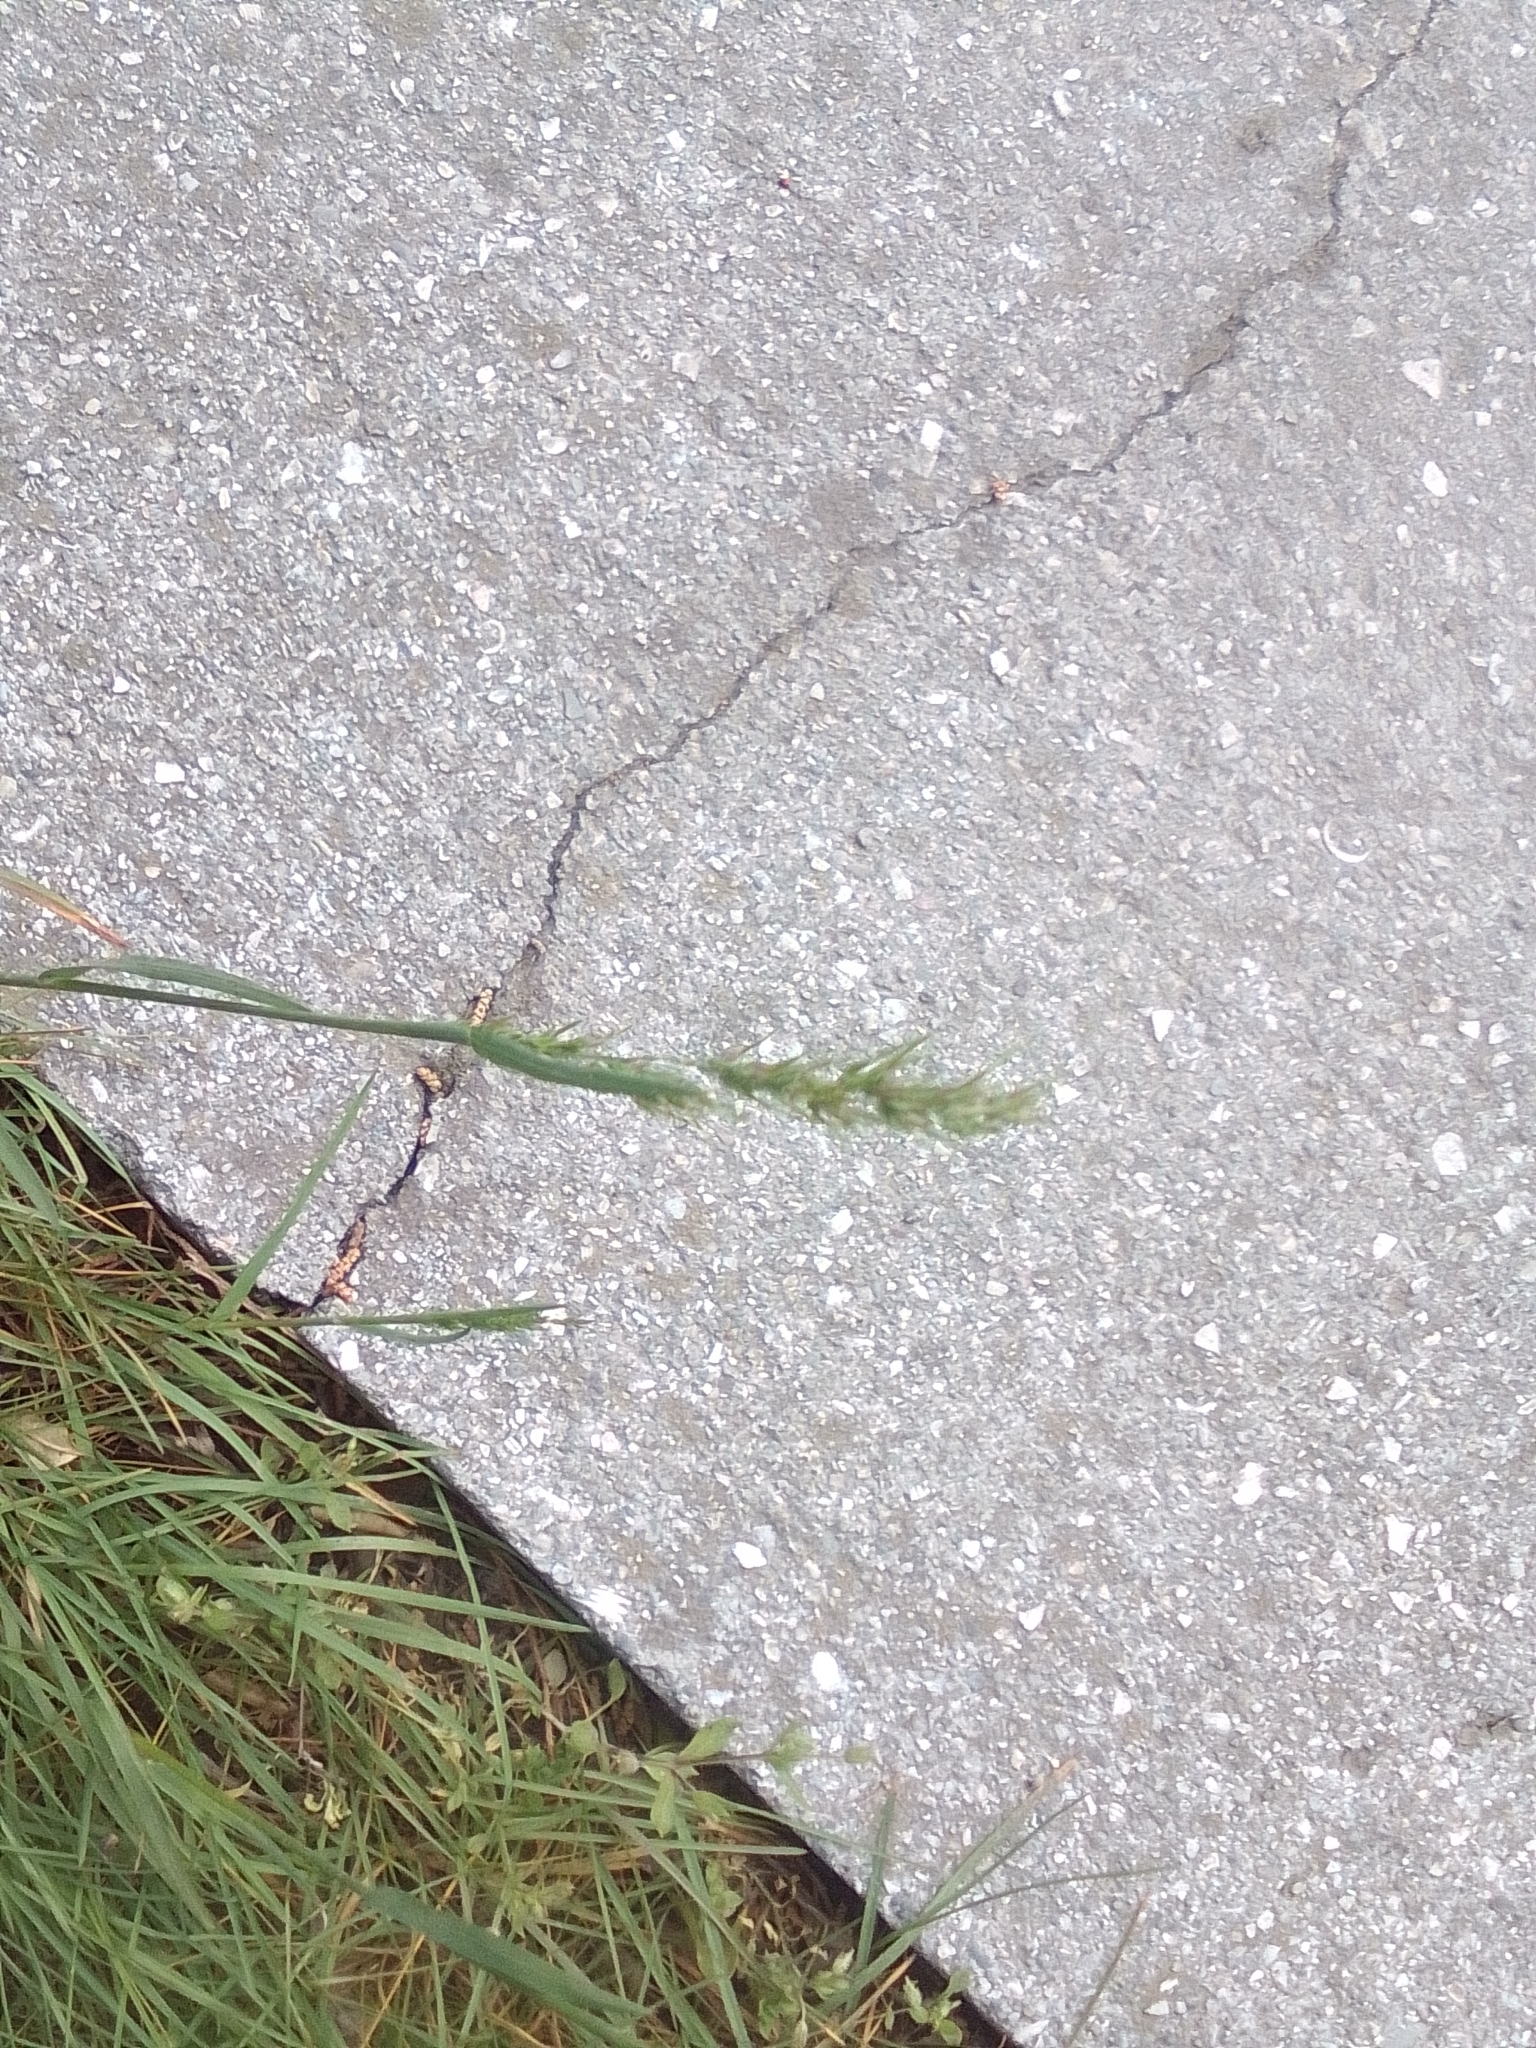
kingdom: Plantae
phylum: Tracheophyta
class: Liliopsida
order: Poales
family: Poaceae
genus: Poa
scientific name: Poa bulbosa
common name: Bulbous bluegrass
